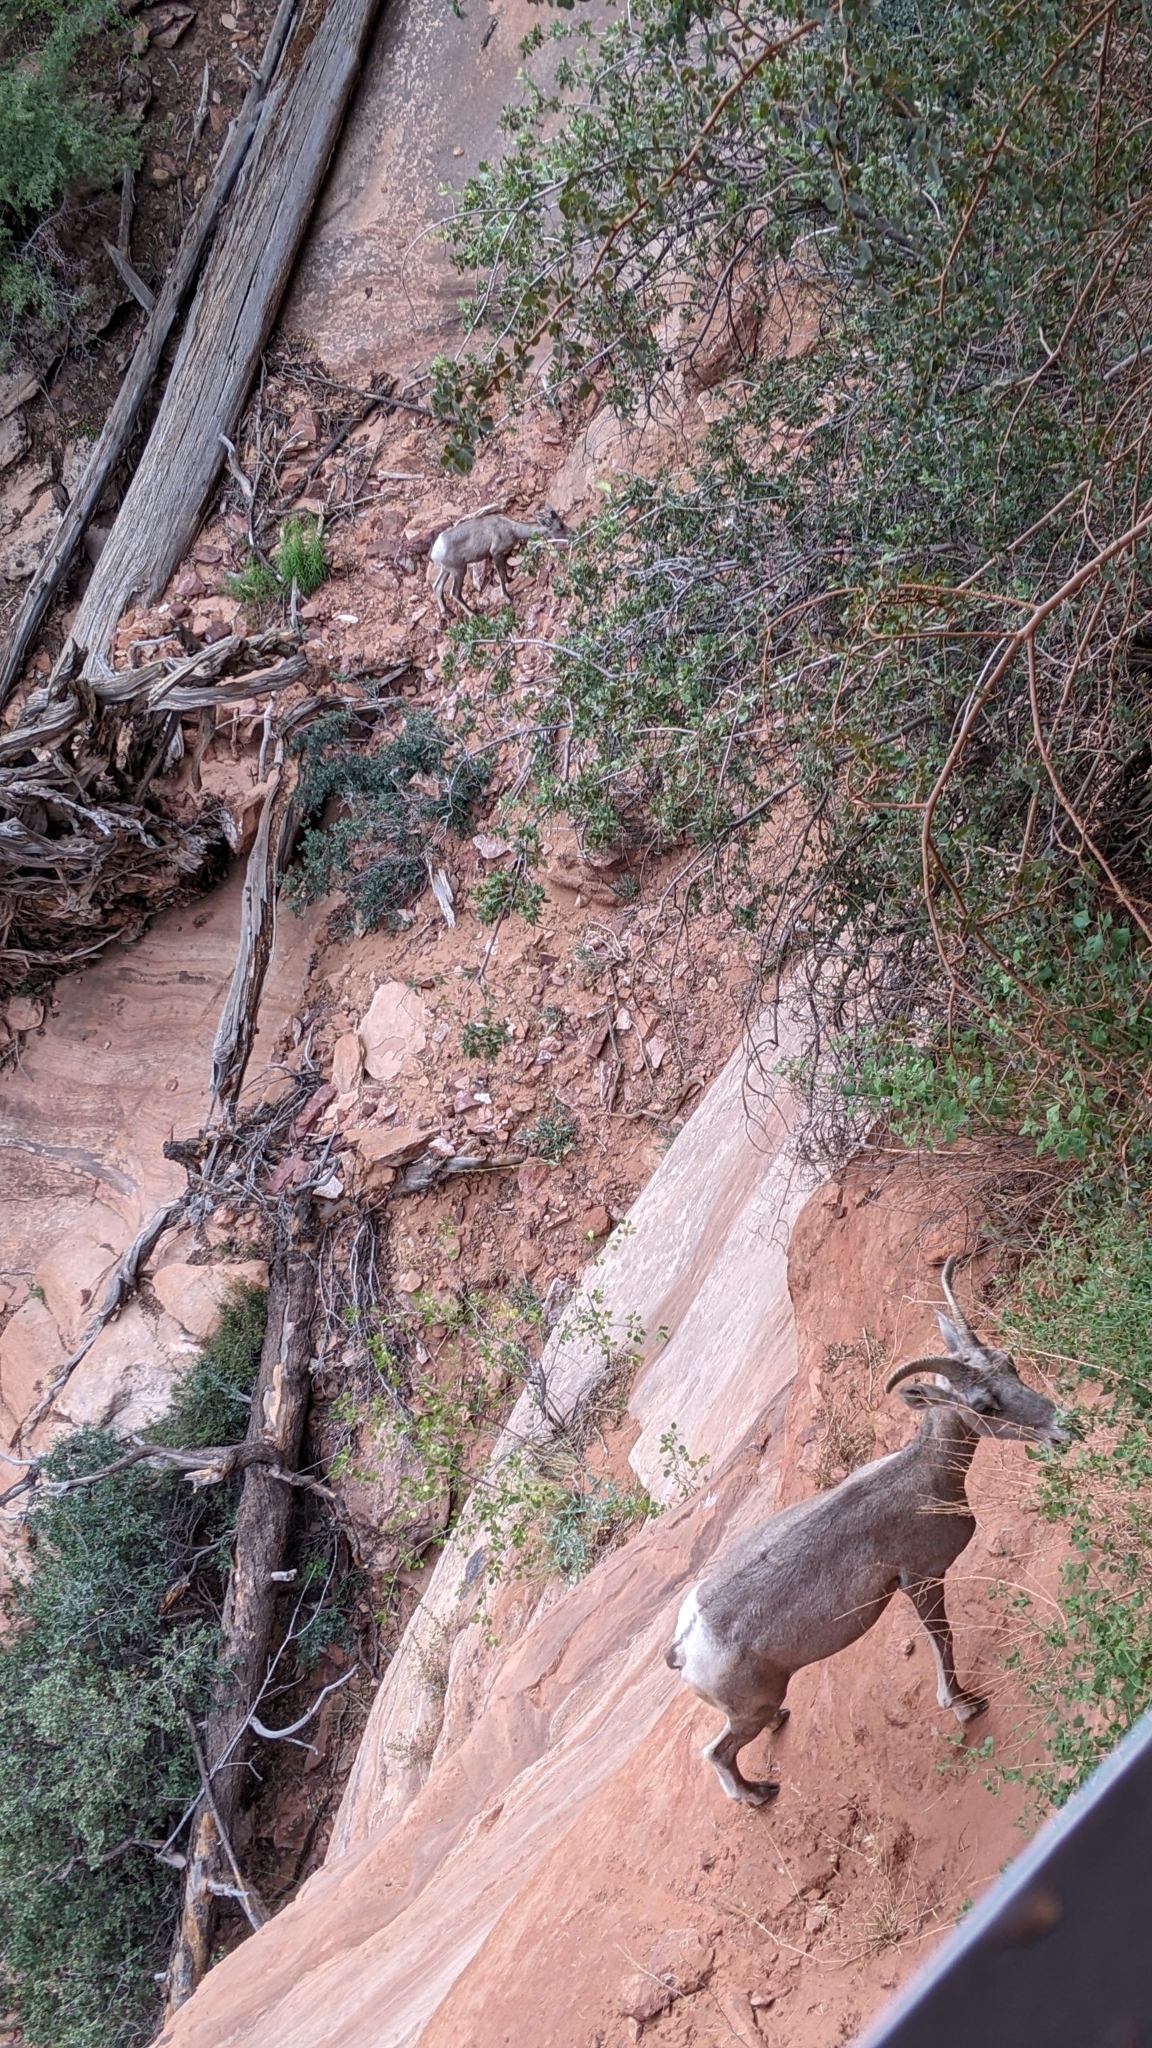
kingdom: Animalia
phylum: Chordata
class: Mammalia
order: Artiodactyla
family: Bovidae
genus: Ovis
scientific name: Ovis canadensis
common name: Bighorn sheep
